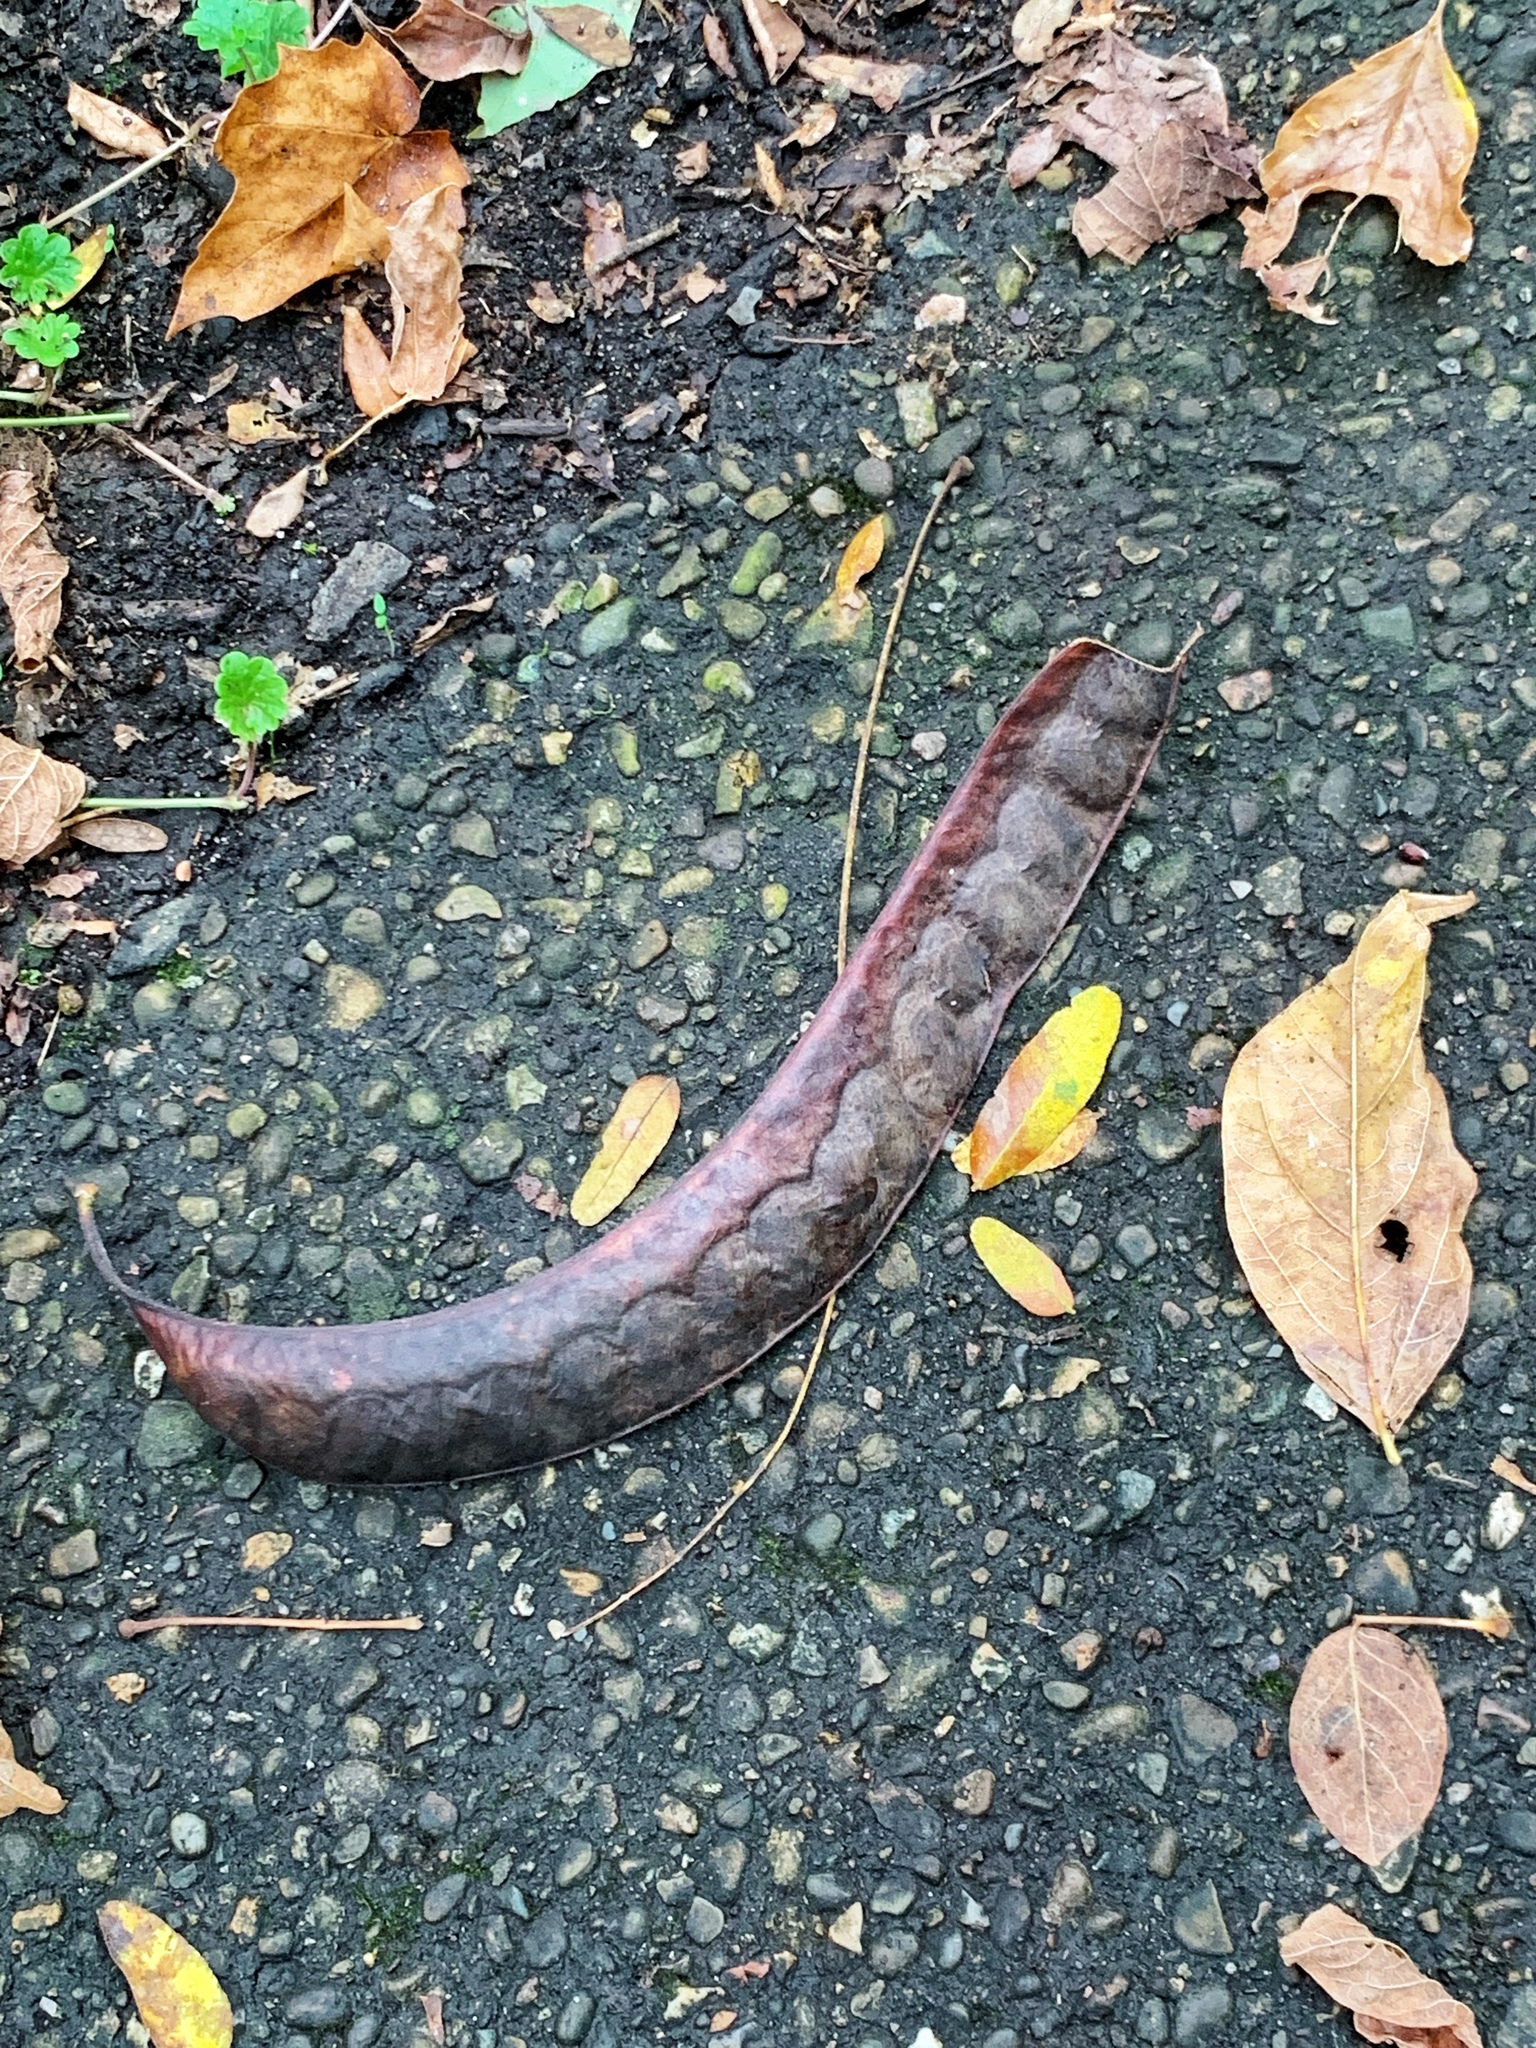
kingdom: Plantae
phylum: Tracheophyta
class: Magnoliopsida
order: Fabales
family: Fabaceae
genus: Gleditsia
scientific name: Gleditsia triacanthos
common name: Common honeylocust
